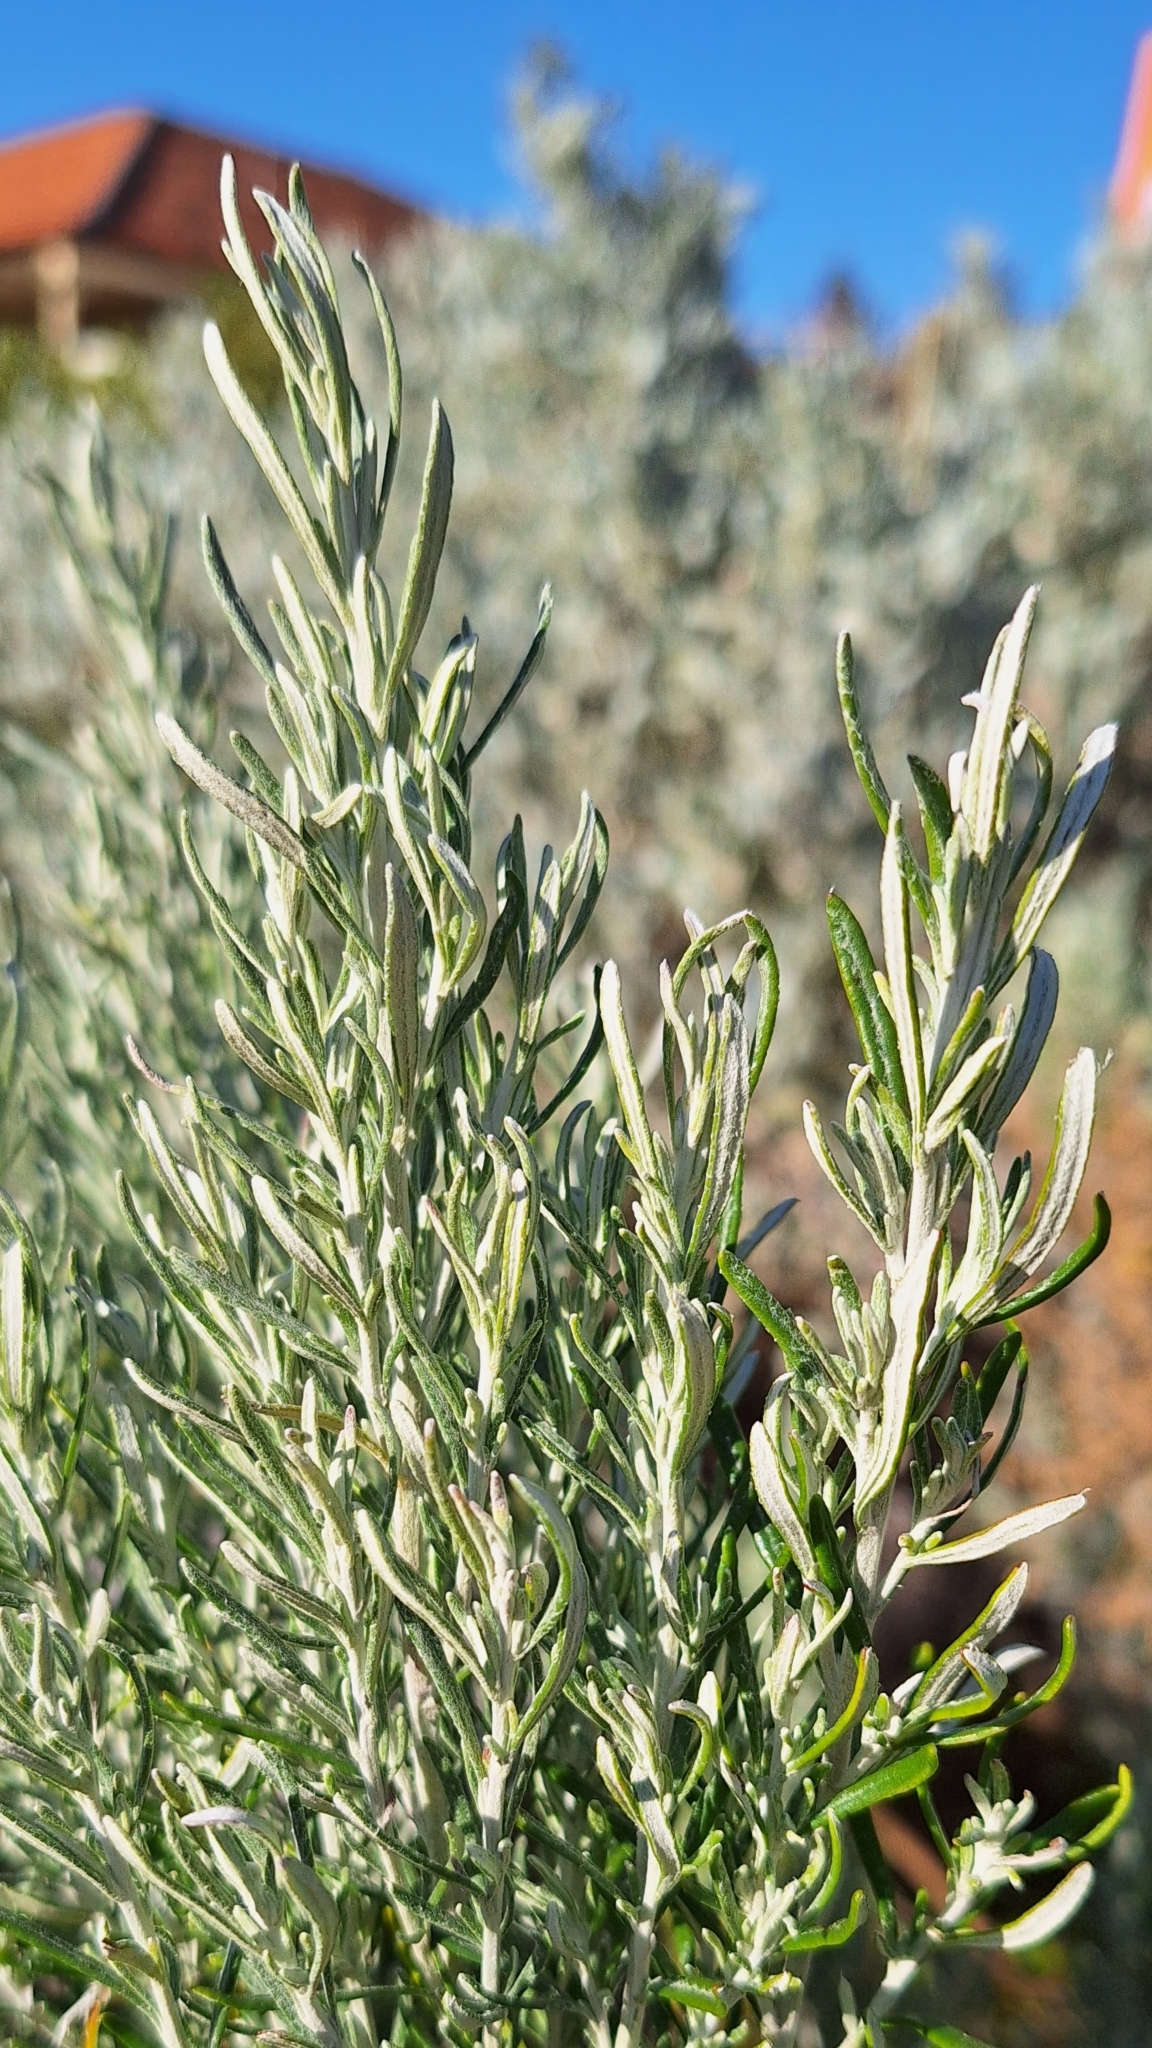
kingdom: Plantae
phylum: Tracheophyta
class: Magnoliopsida
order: Asterales
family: Asteraceae
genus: Olearia
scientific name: Olearia axillaris
